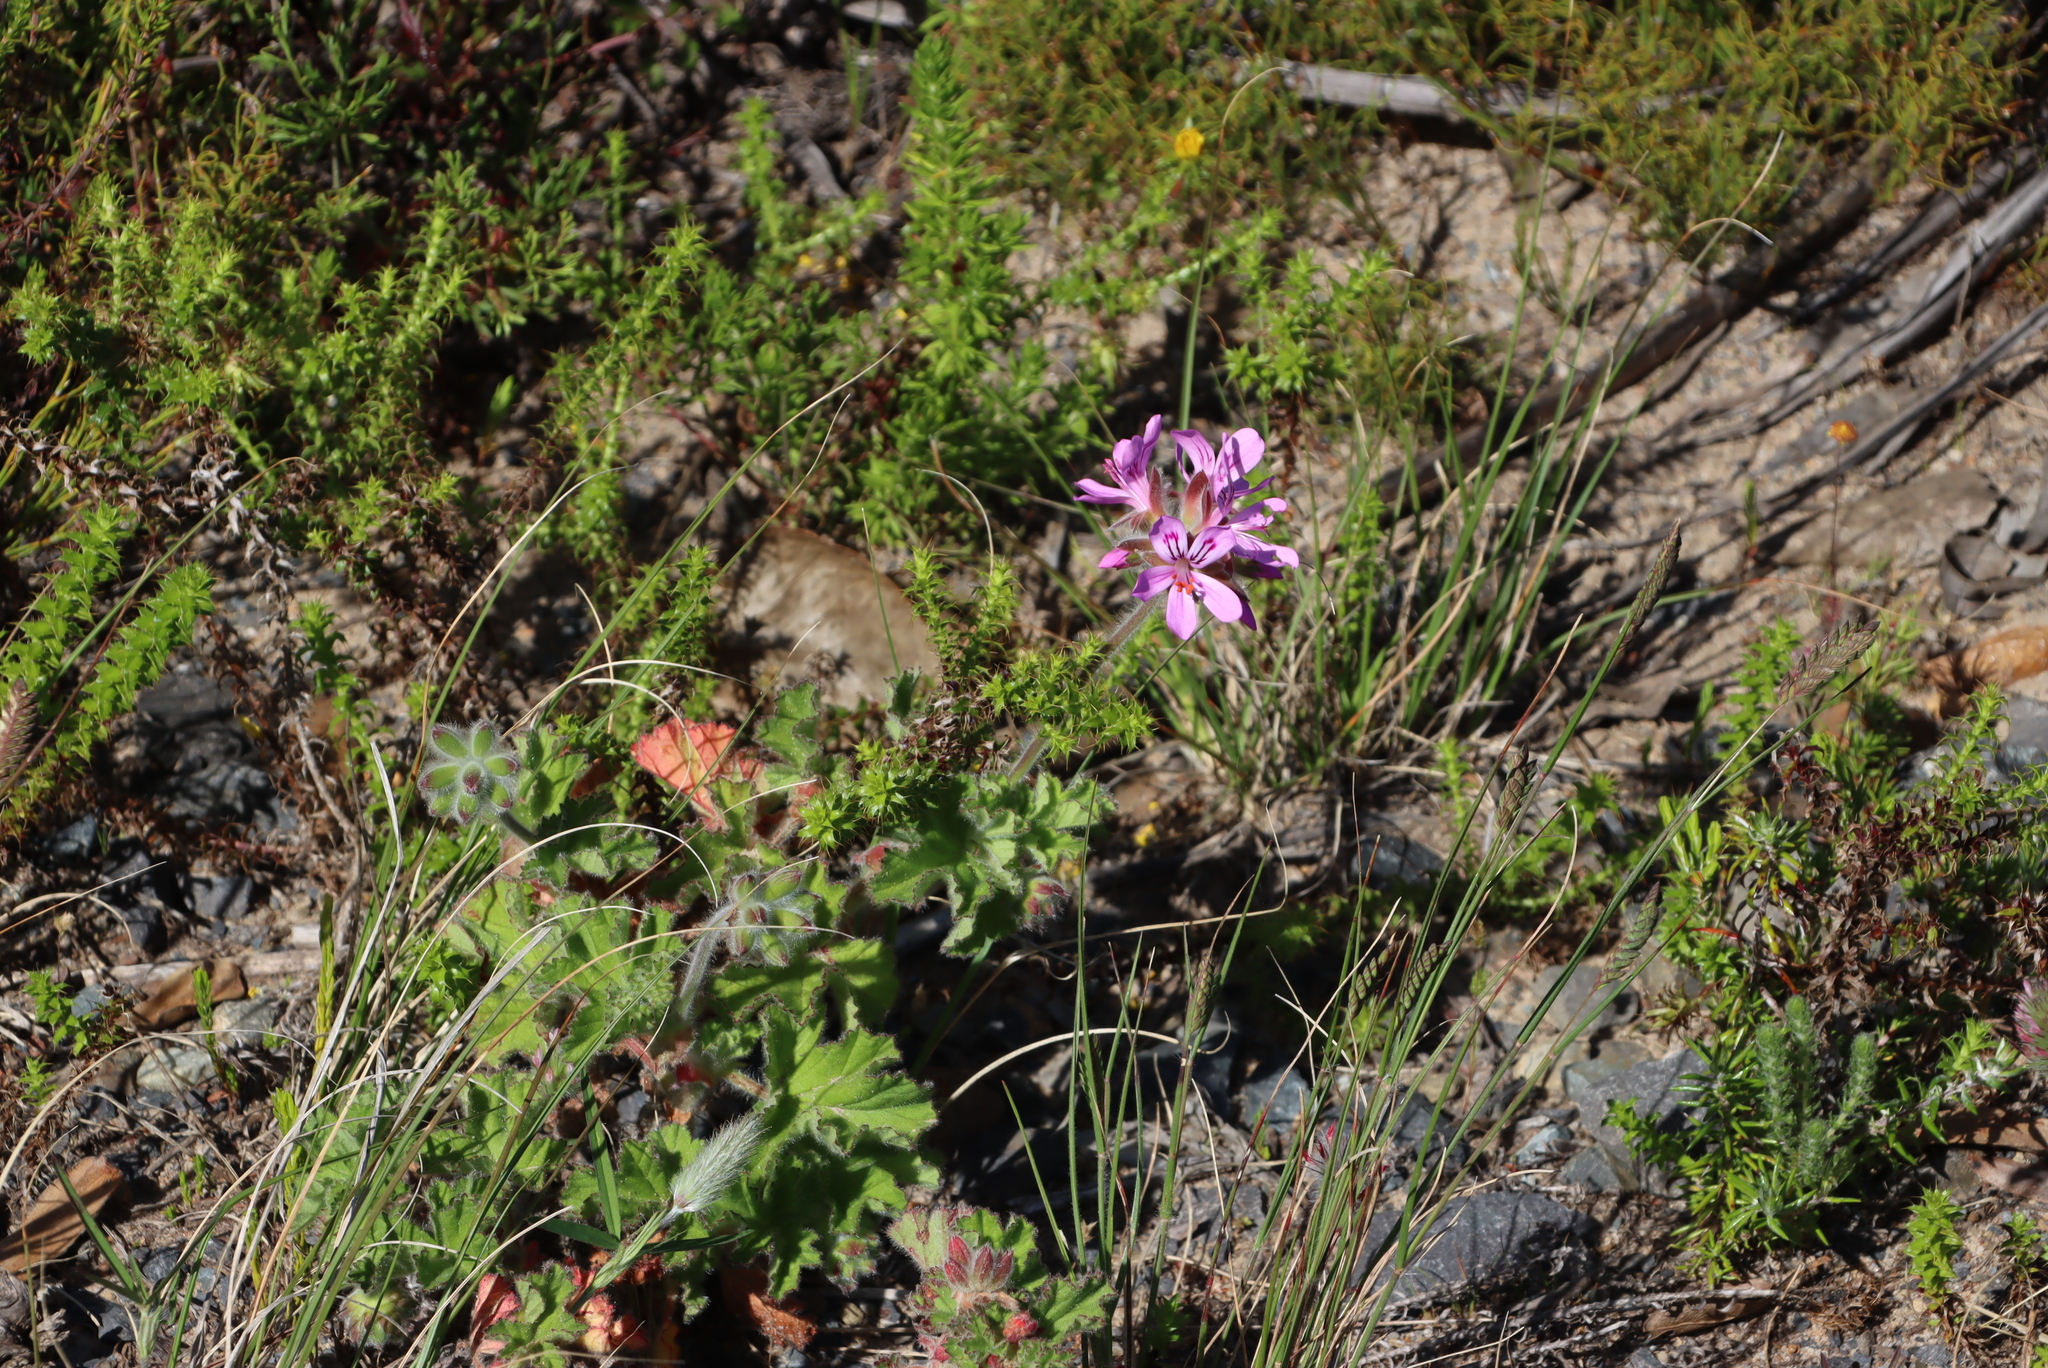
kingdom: Plantae
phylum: Tracheophyta
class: Magnoliopsida
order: Geraniales
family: Geraniaceae
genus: Pelargonium
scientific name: Pelargonium capitatum
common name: Rose scented geranium
